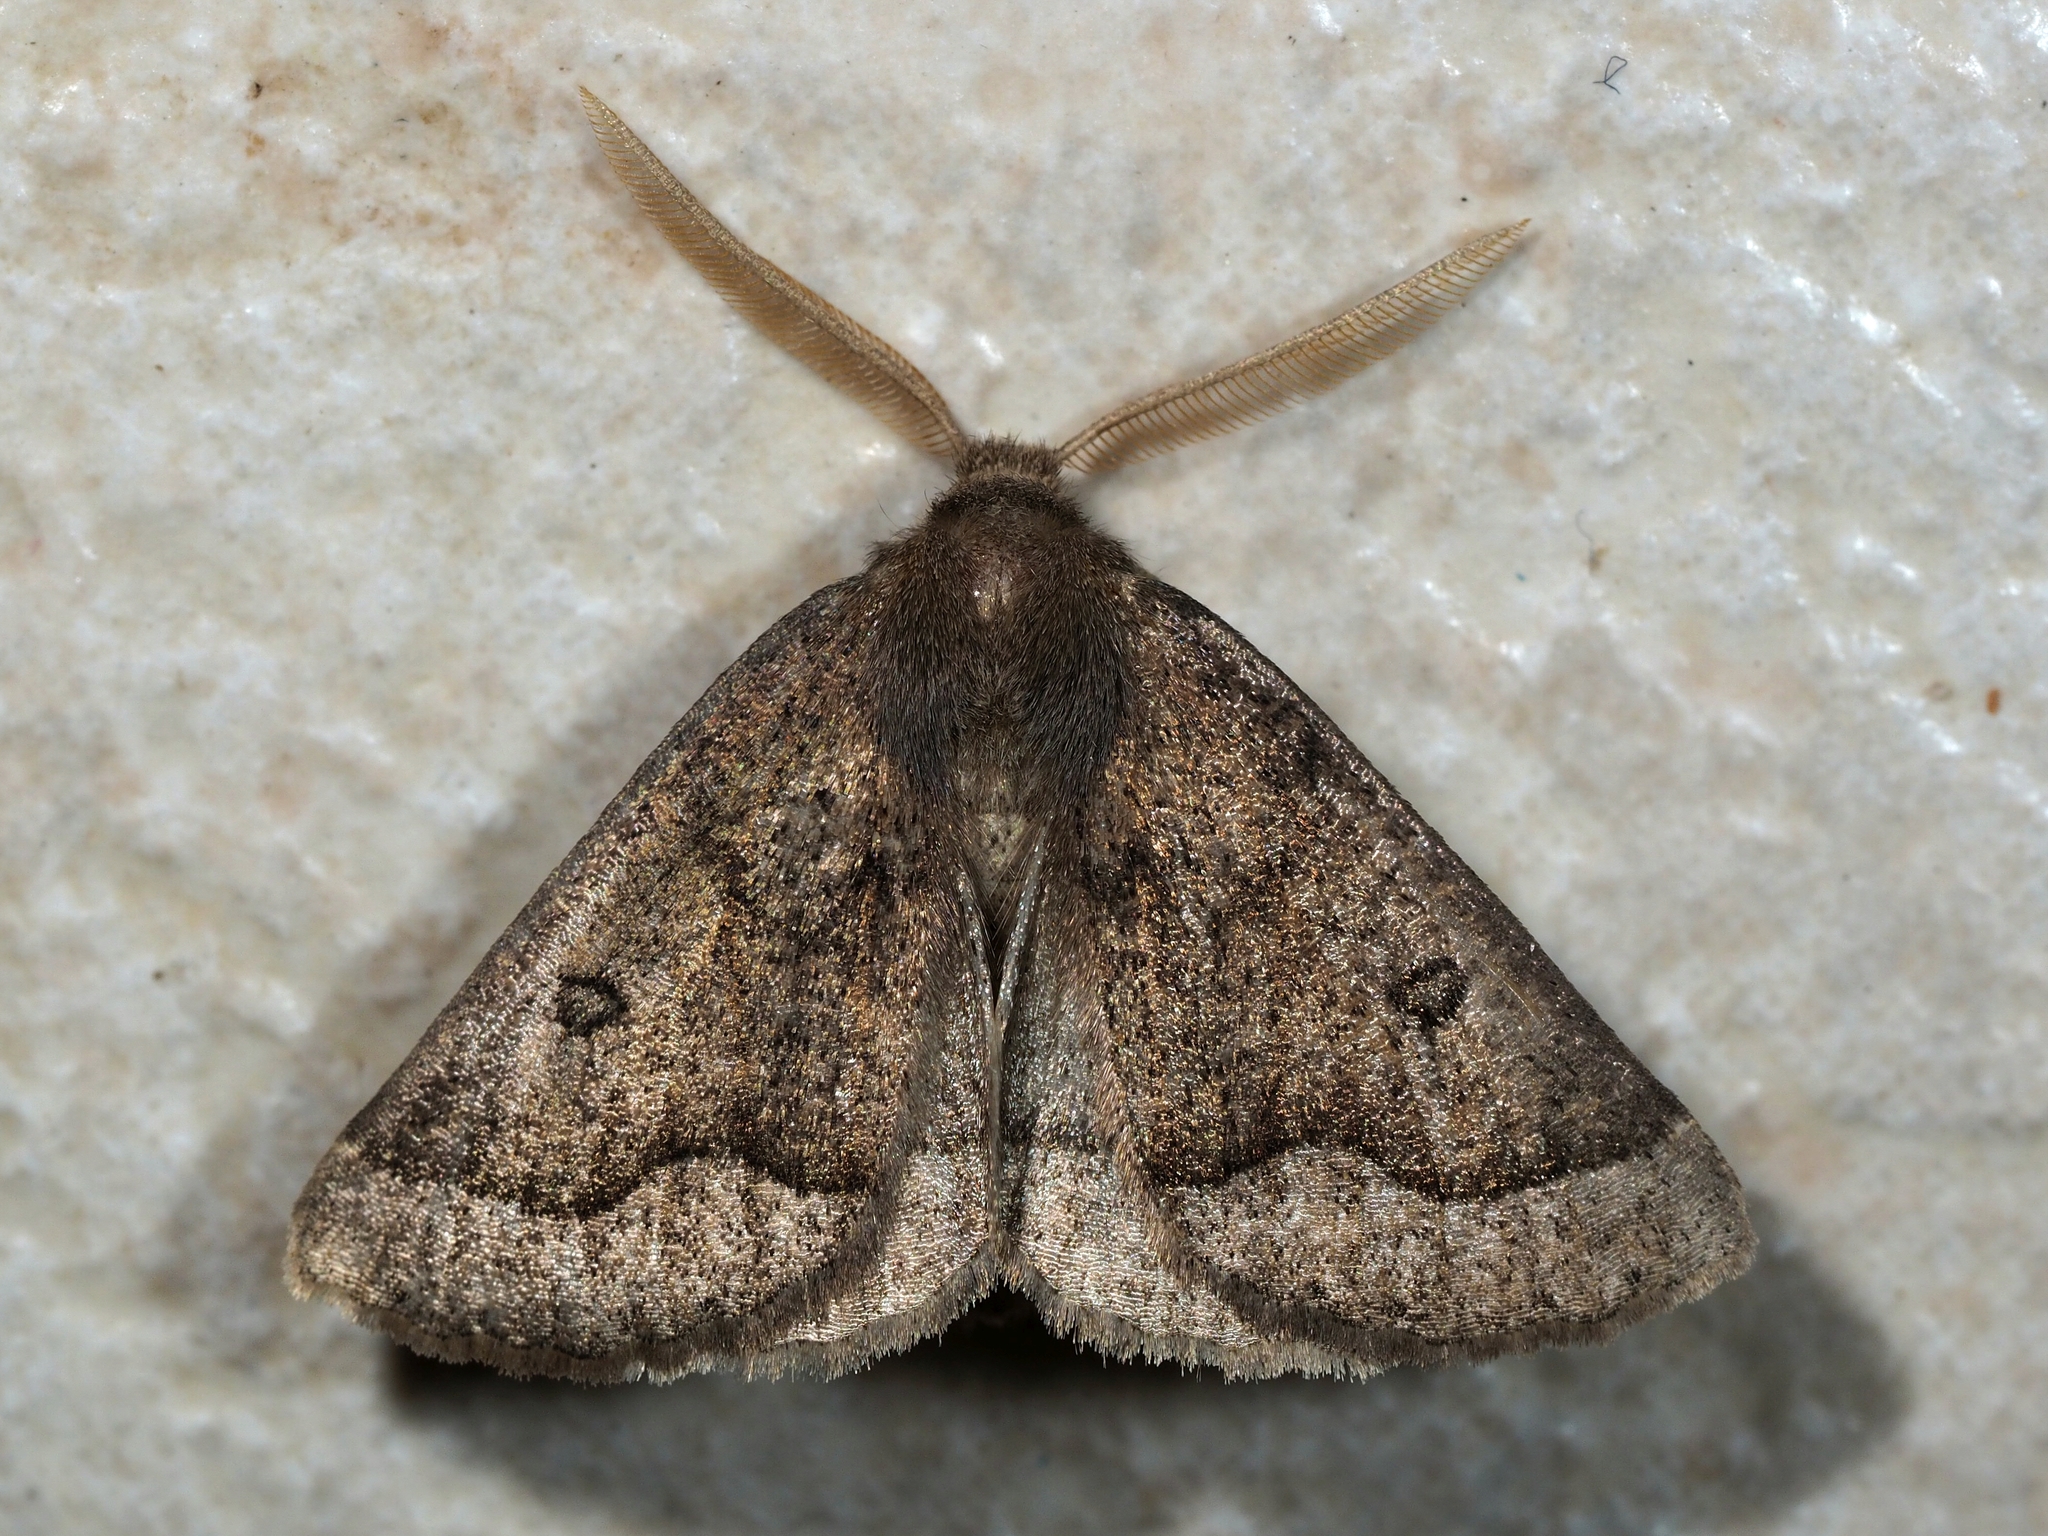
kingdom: Animalia
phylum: Arthropoda
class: Insecta
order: Lepidoptera
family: Geometridae
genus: Crocallis
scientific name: Crocallis boisduvalaria
